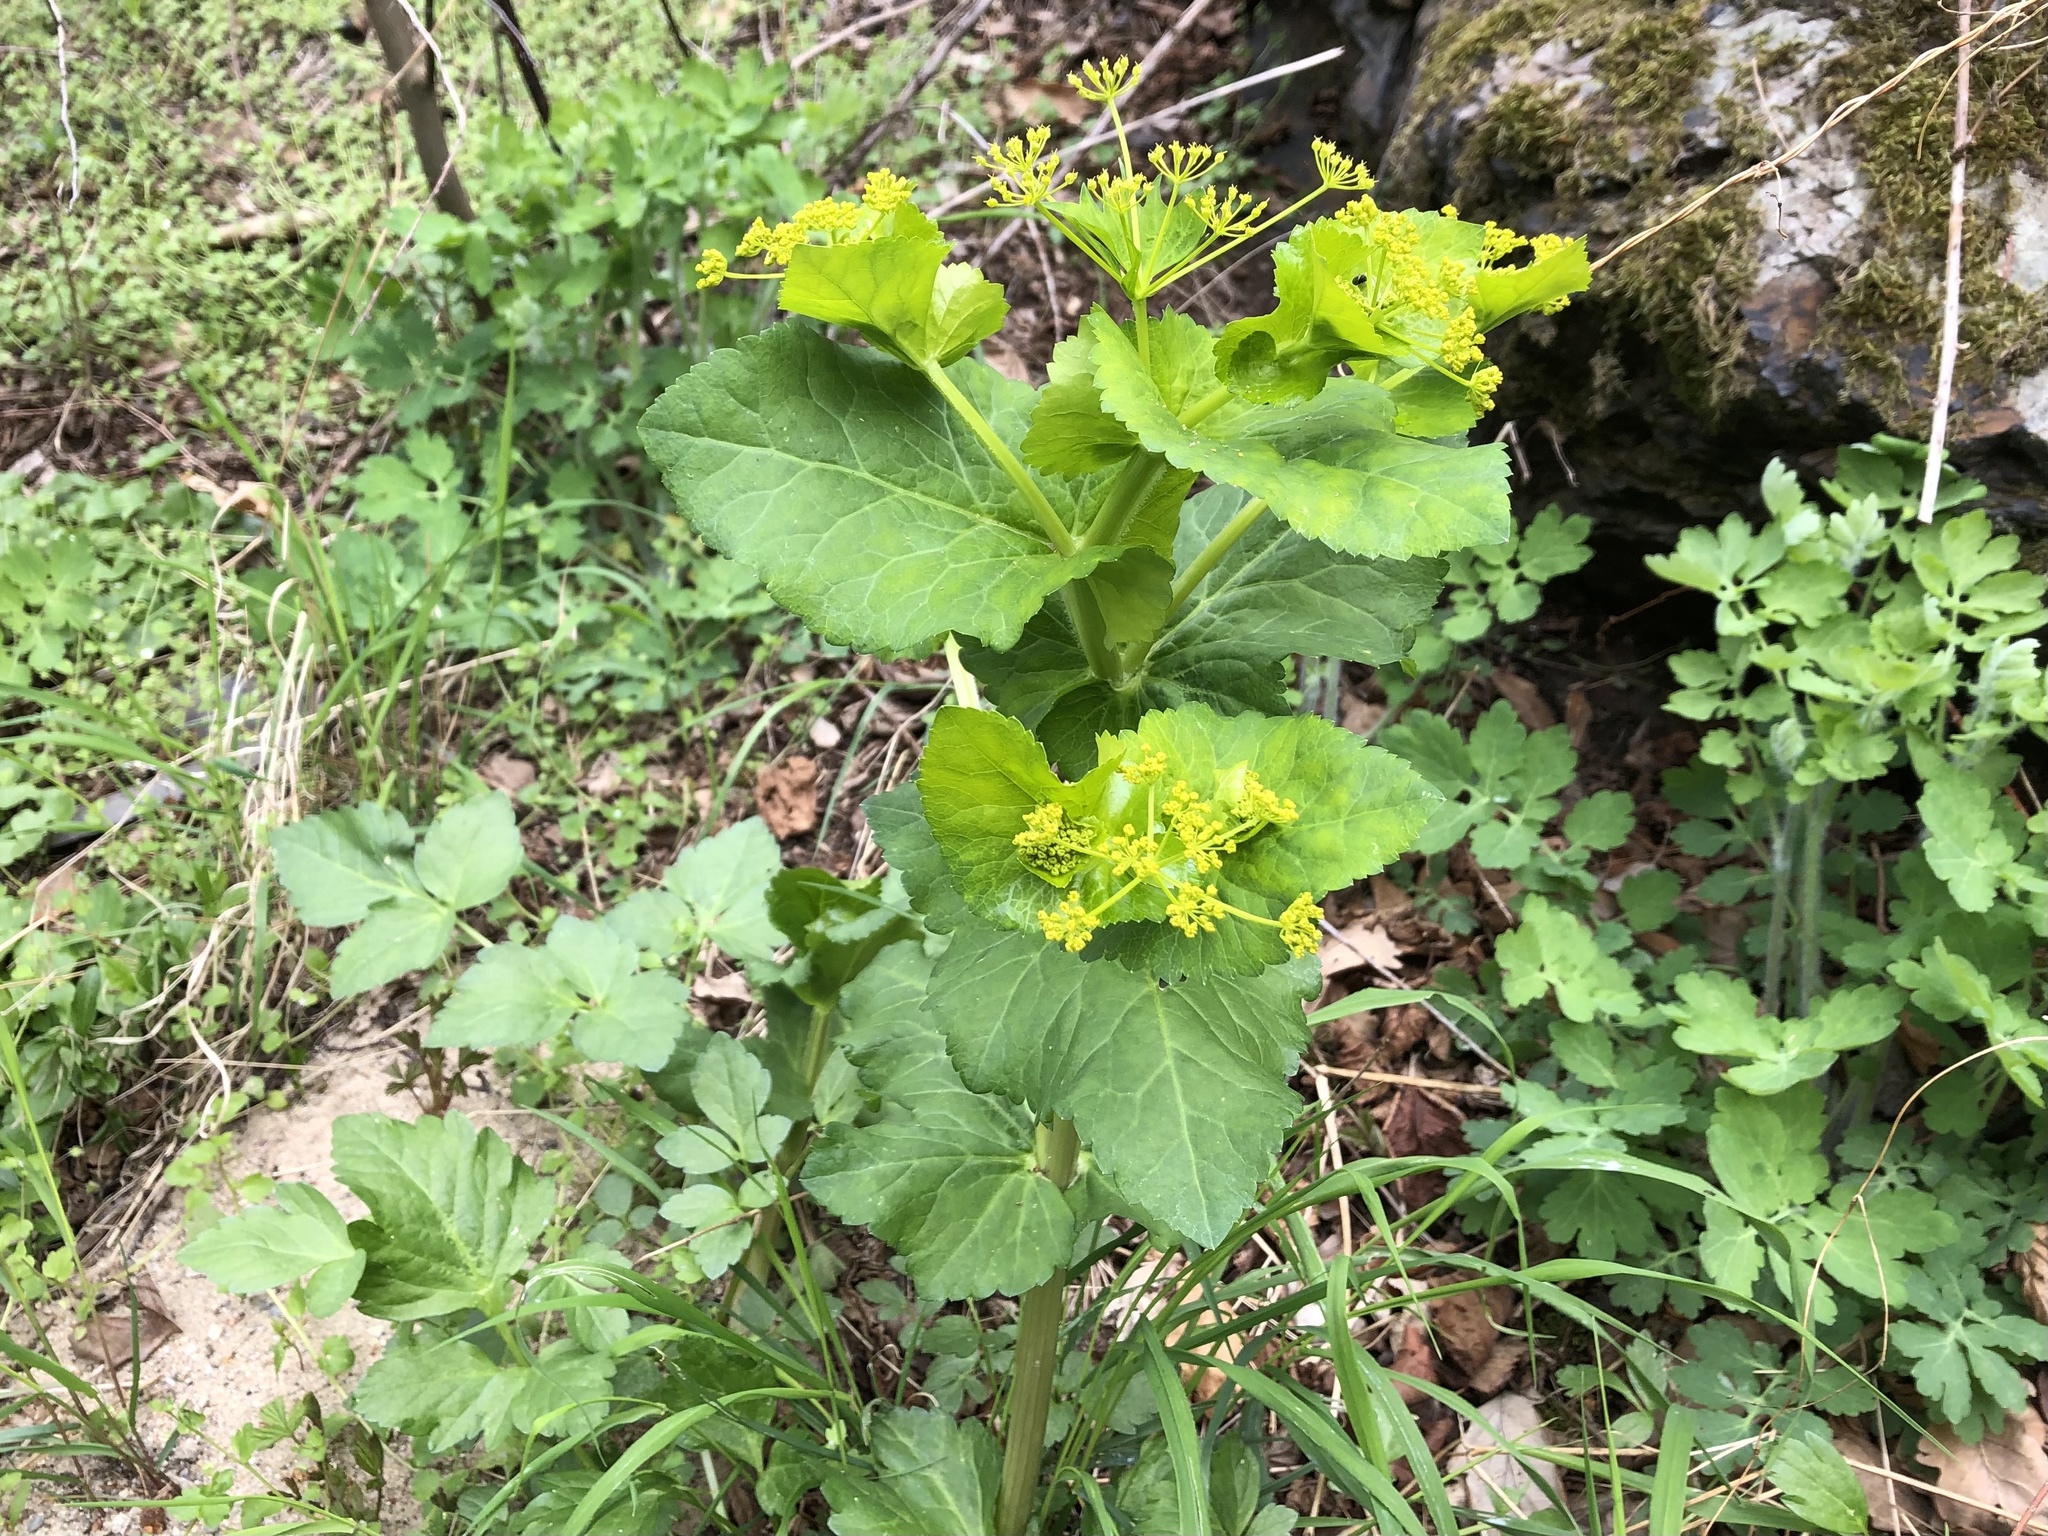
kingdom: Plantae
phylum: Tracheophyta
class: Magnoliopsida
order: Apiales
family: Apiaceae
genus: Smyrnium
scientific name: Smyrnium perfoliatum
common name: Perfoliate alexanders
